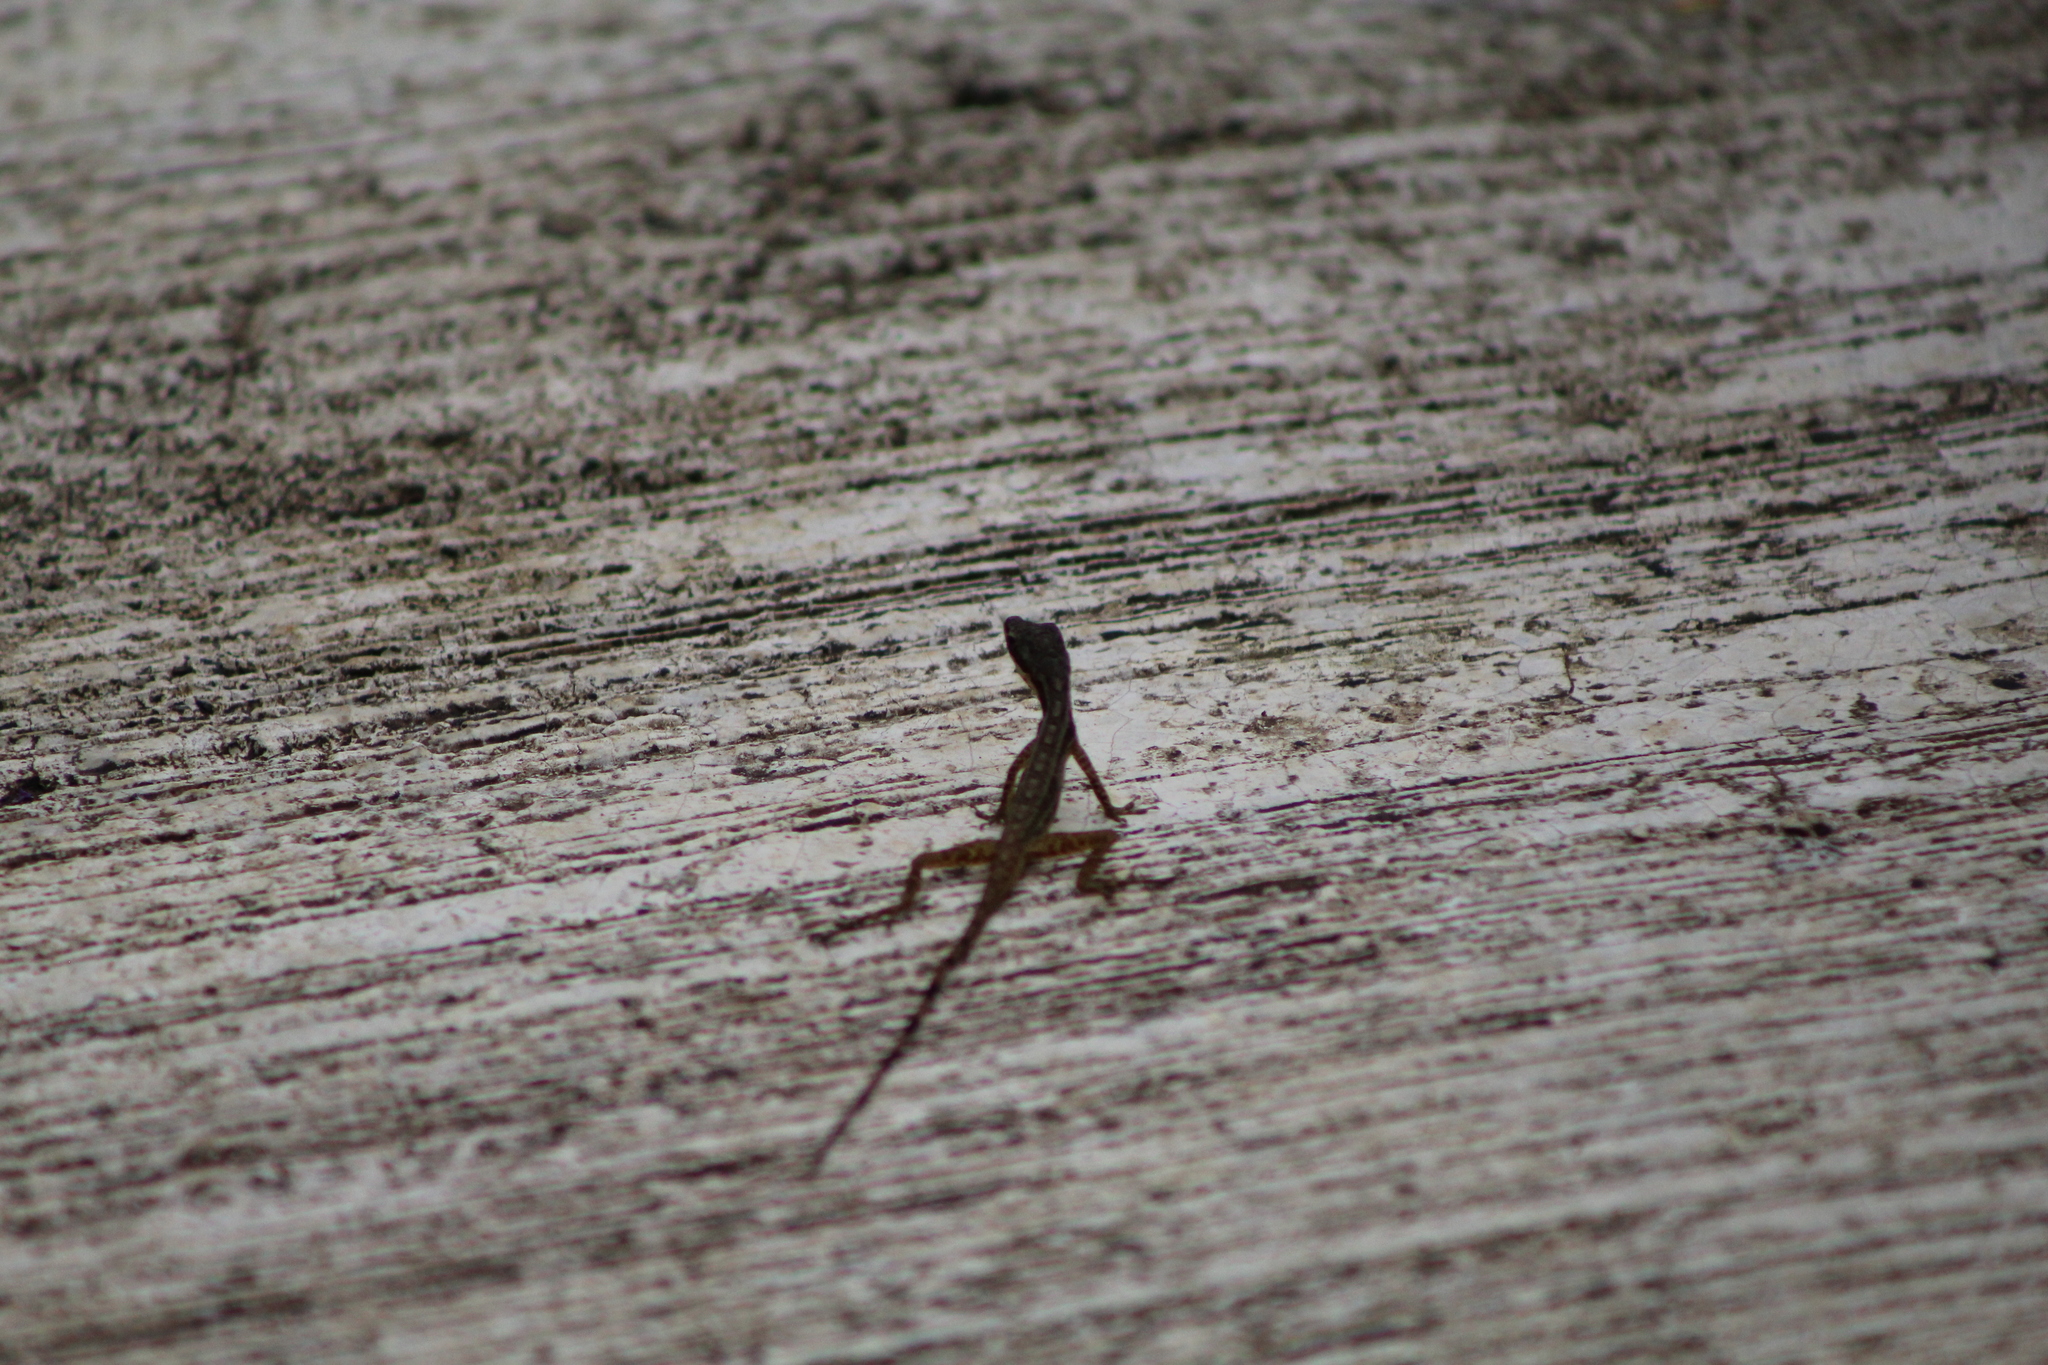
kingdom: Animalia
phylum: Chordata
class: Squamata
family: Dactyloidae
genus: Anolis
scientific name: Anolis limifrons
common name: Border anole
